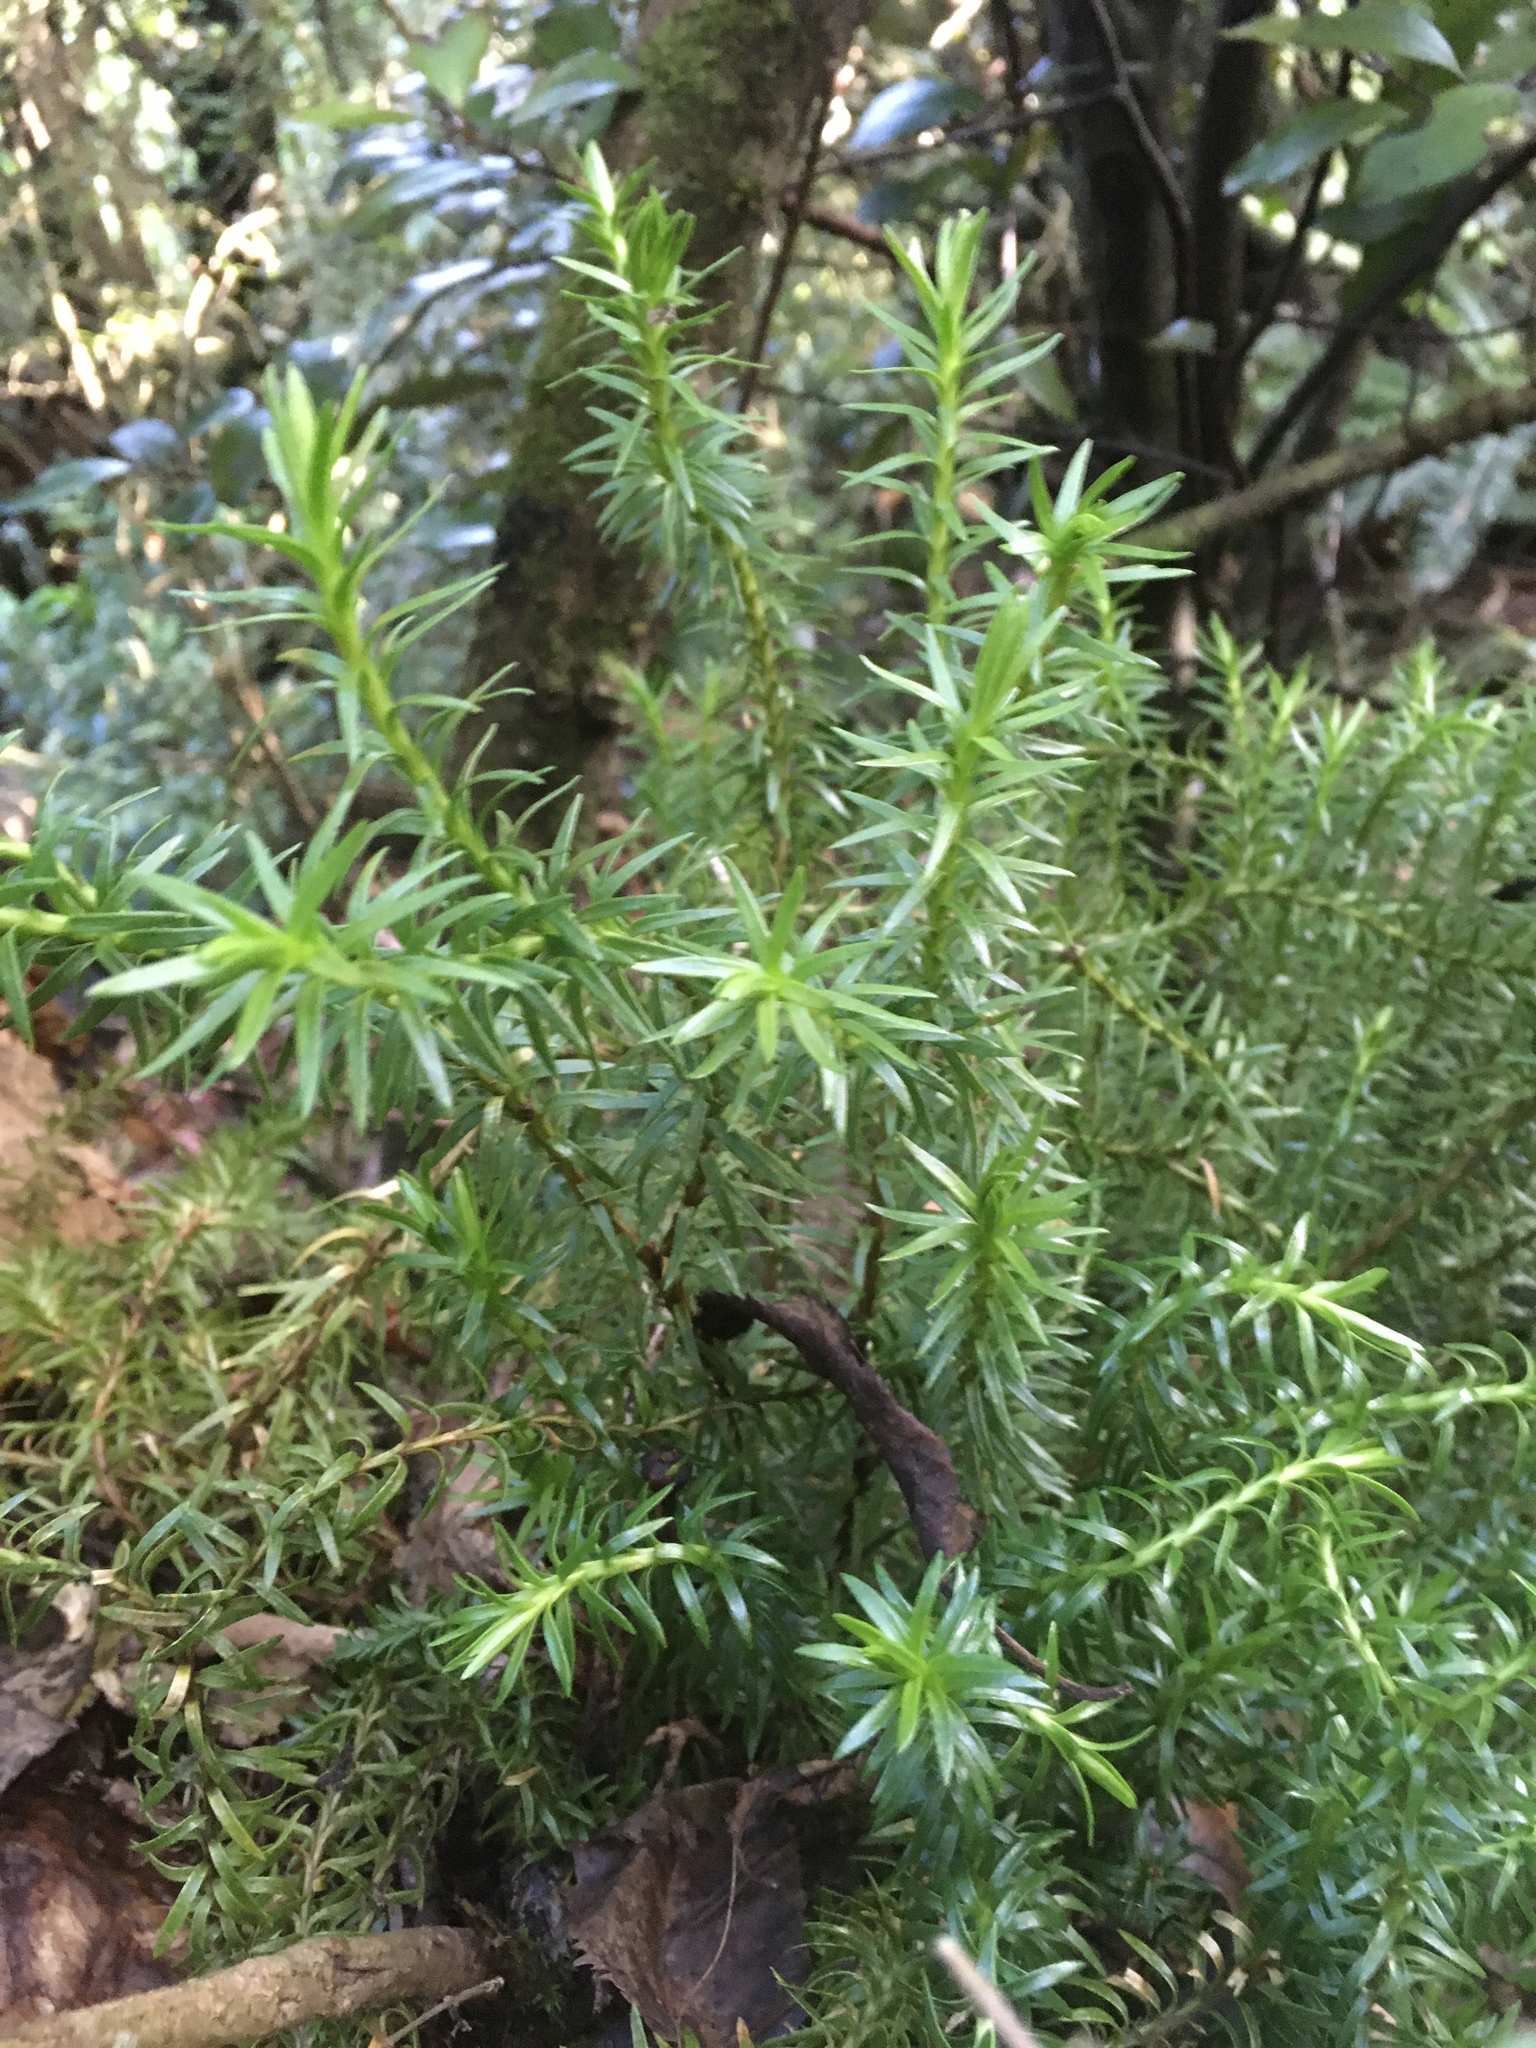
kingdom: Plantae
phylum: Tracheophyta
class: Lycopodiopsida
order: Lycopodiales
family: Lycopodiaceae
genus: Phlegmariurus
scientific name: Phlegmariurus varius
